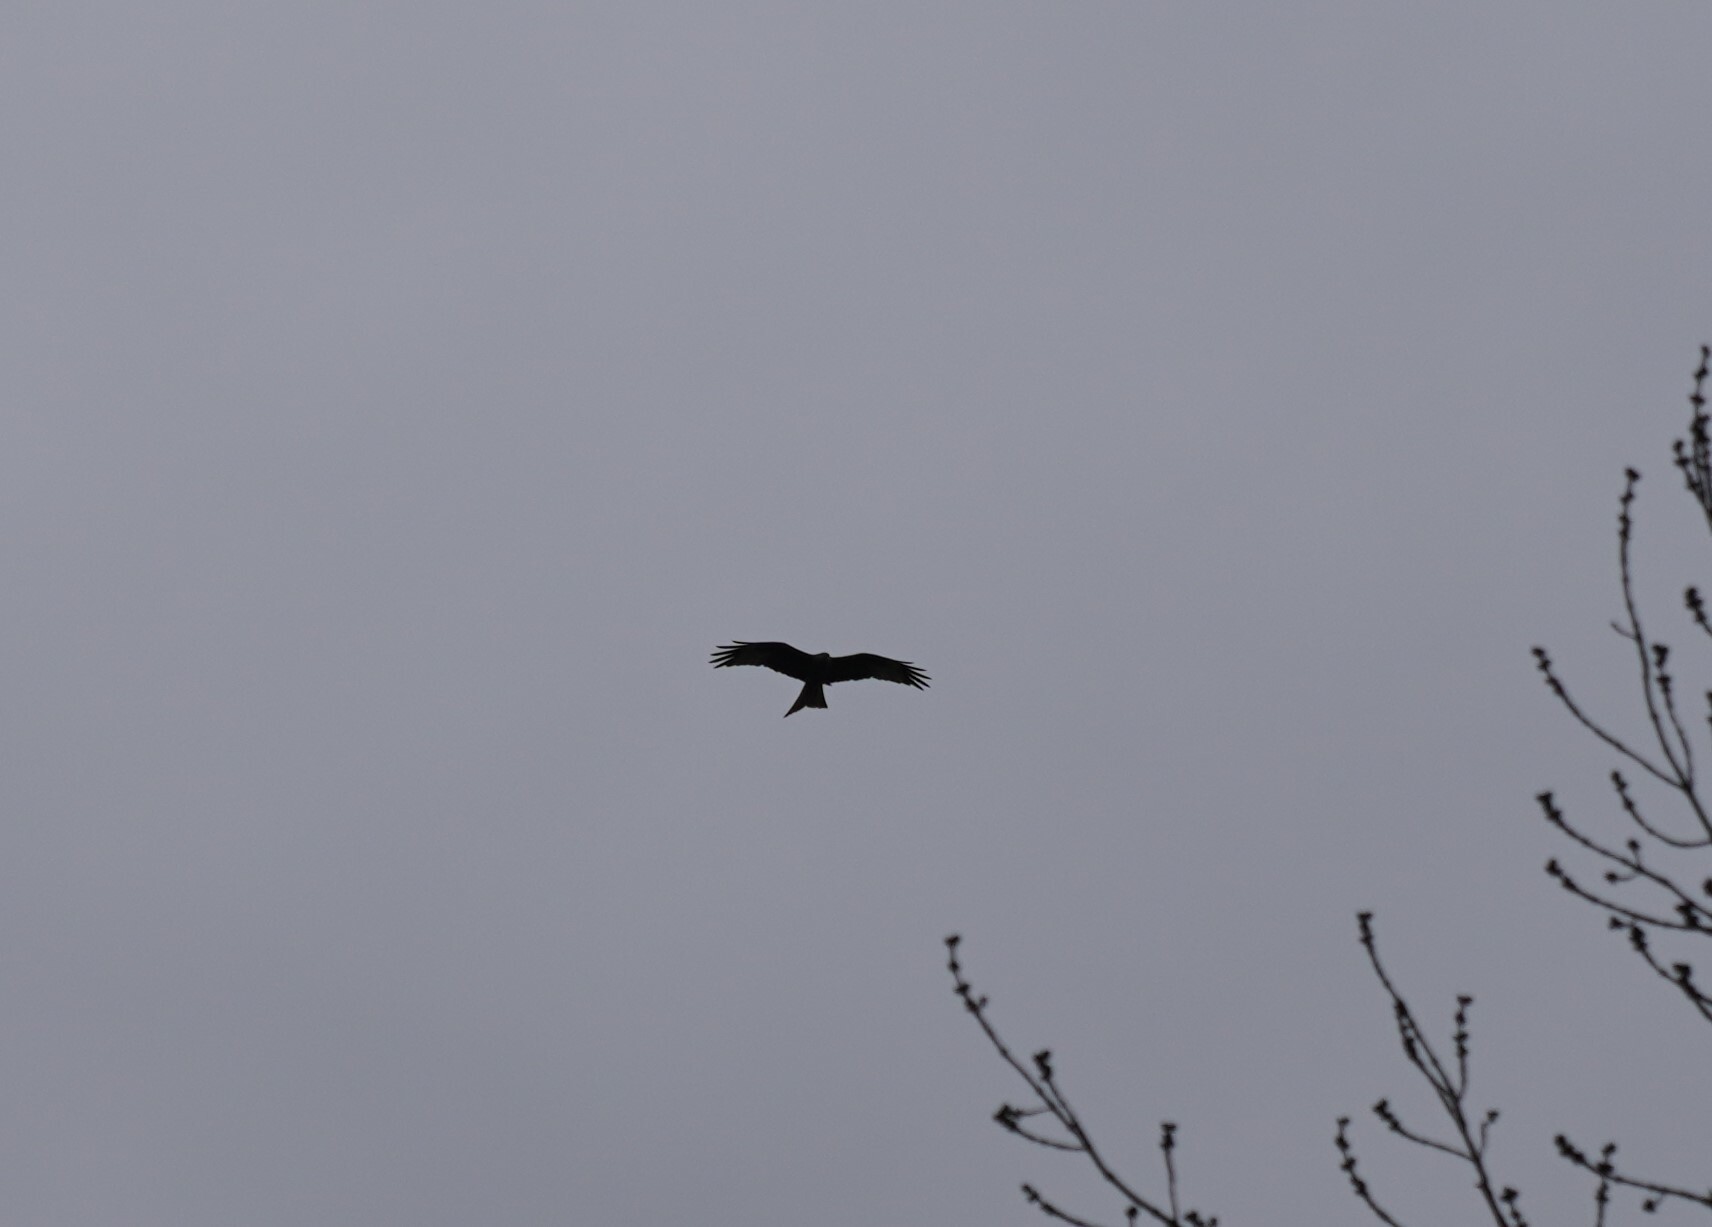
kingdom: Animalia
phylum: Chordata
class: Aves
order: Accipitriformes
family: Accipitridae
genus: Milvus
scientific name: Milvus milvus
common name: Red kite
